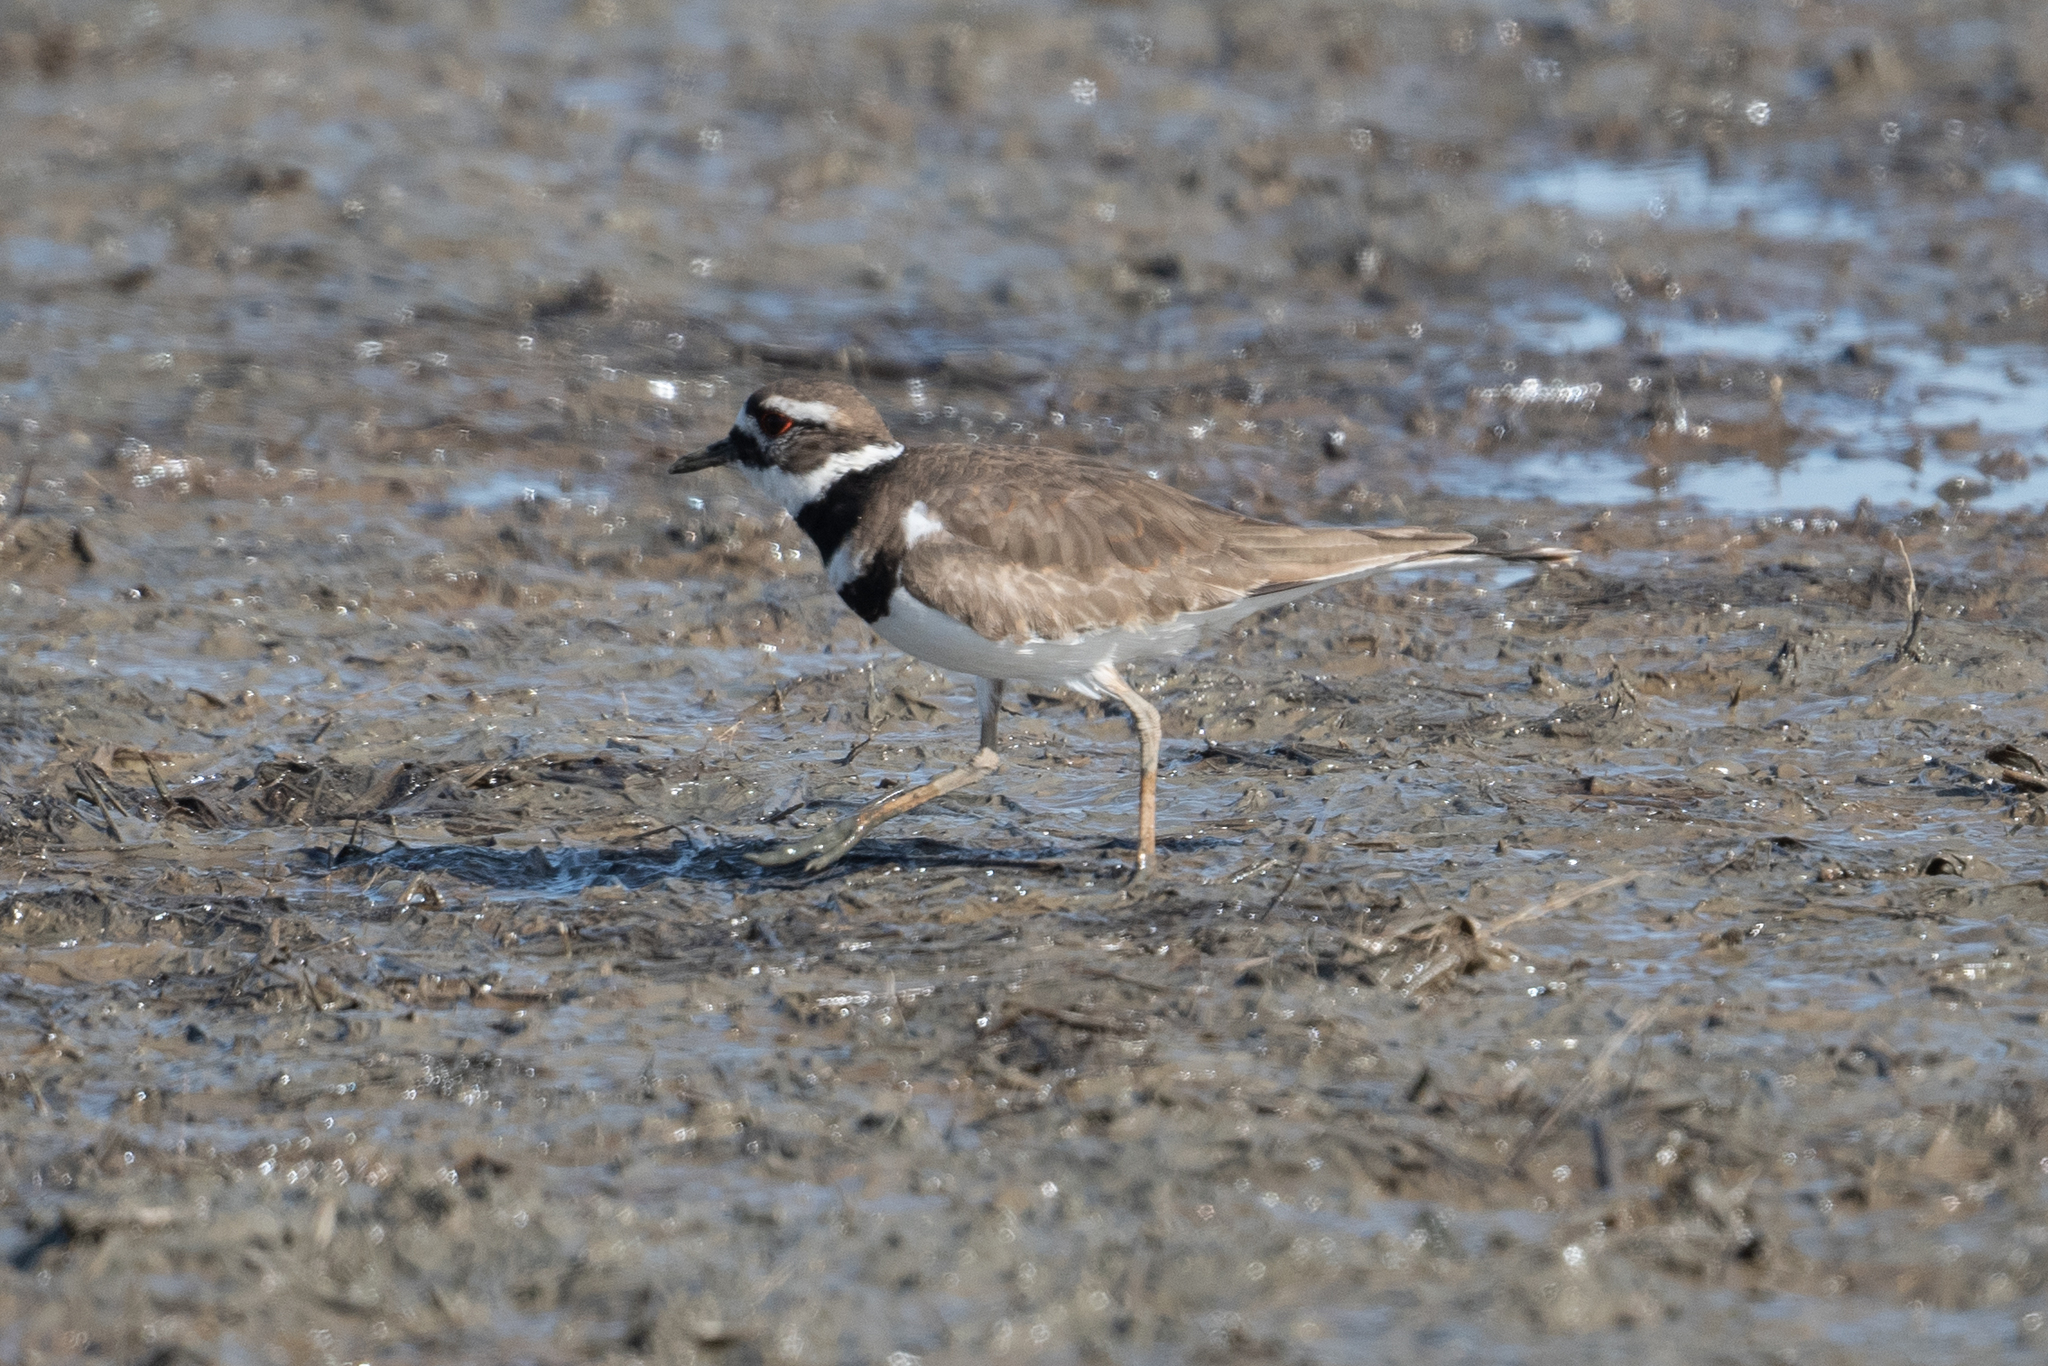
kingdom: Animalia
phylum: Chordata
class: Aves
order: Charadriiformes
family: Charadriidae
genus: Charadrius
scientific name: Charadrius vociferus
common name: Killdeer
